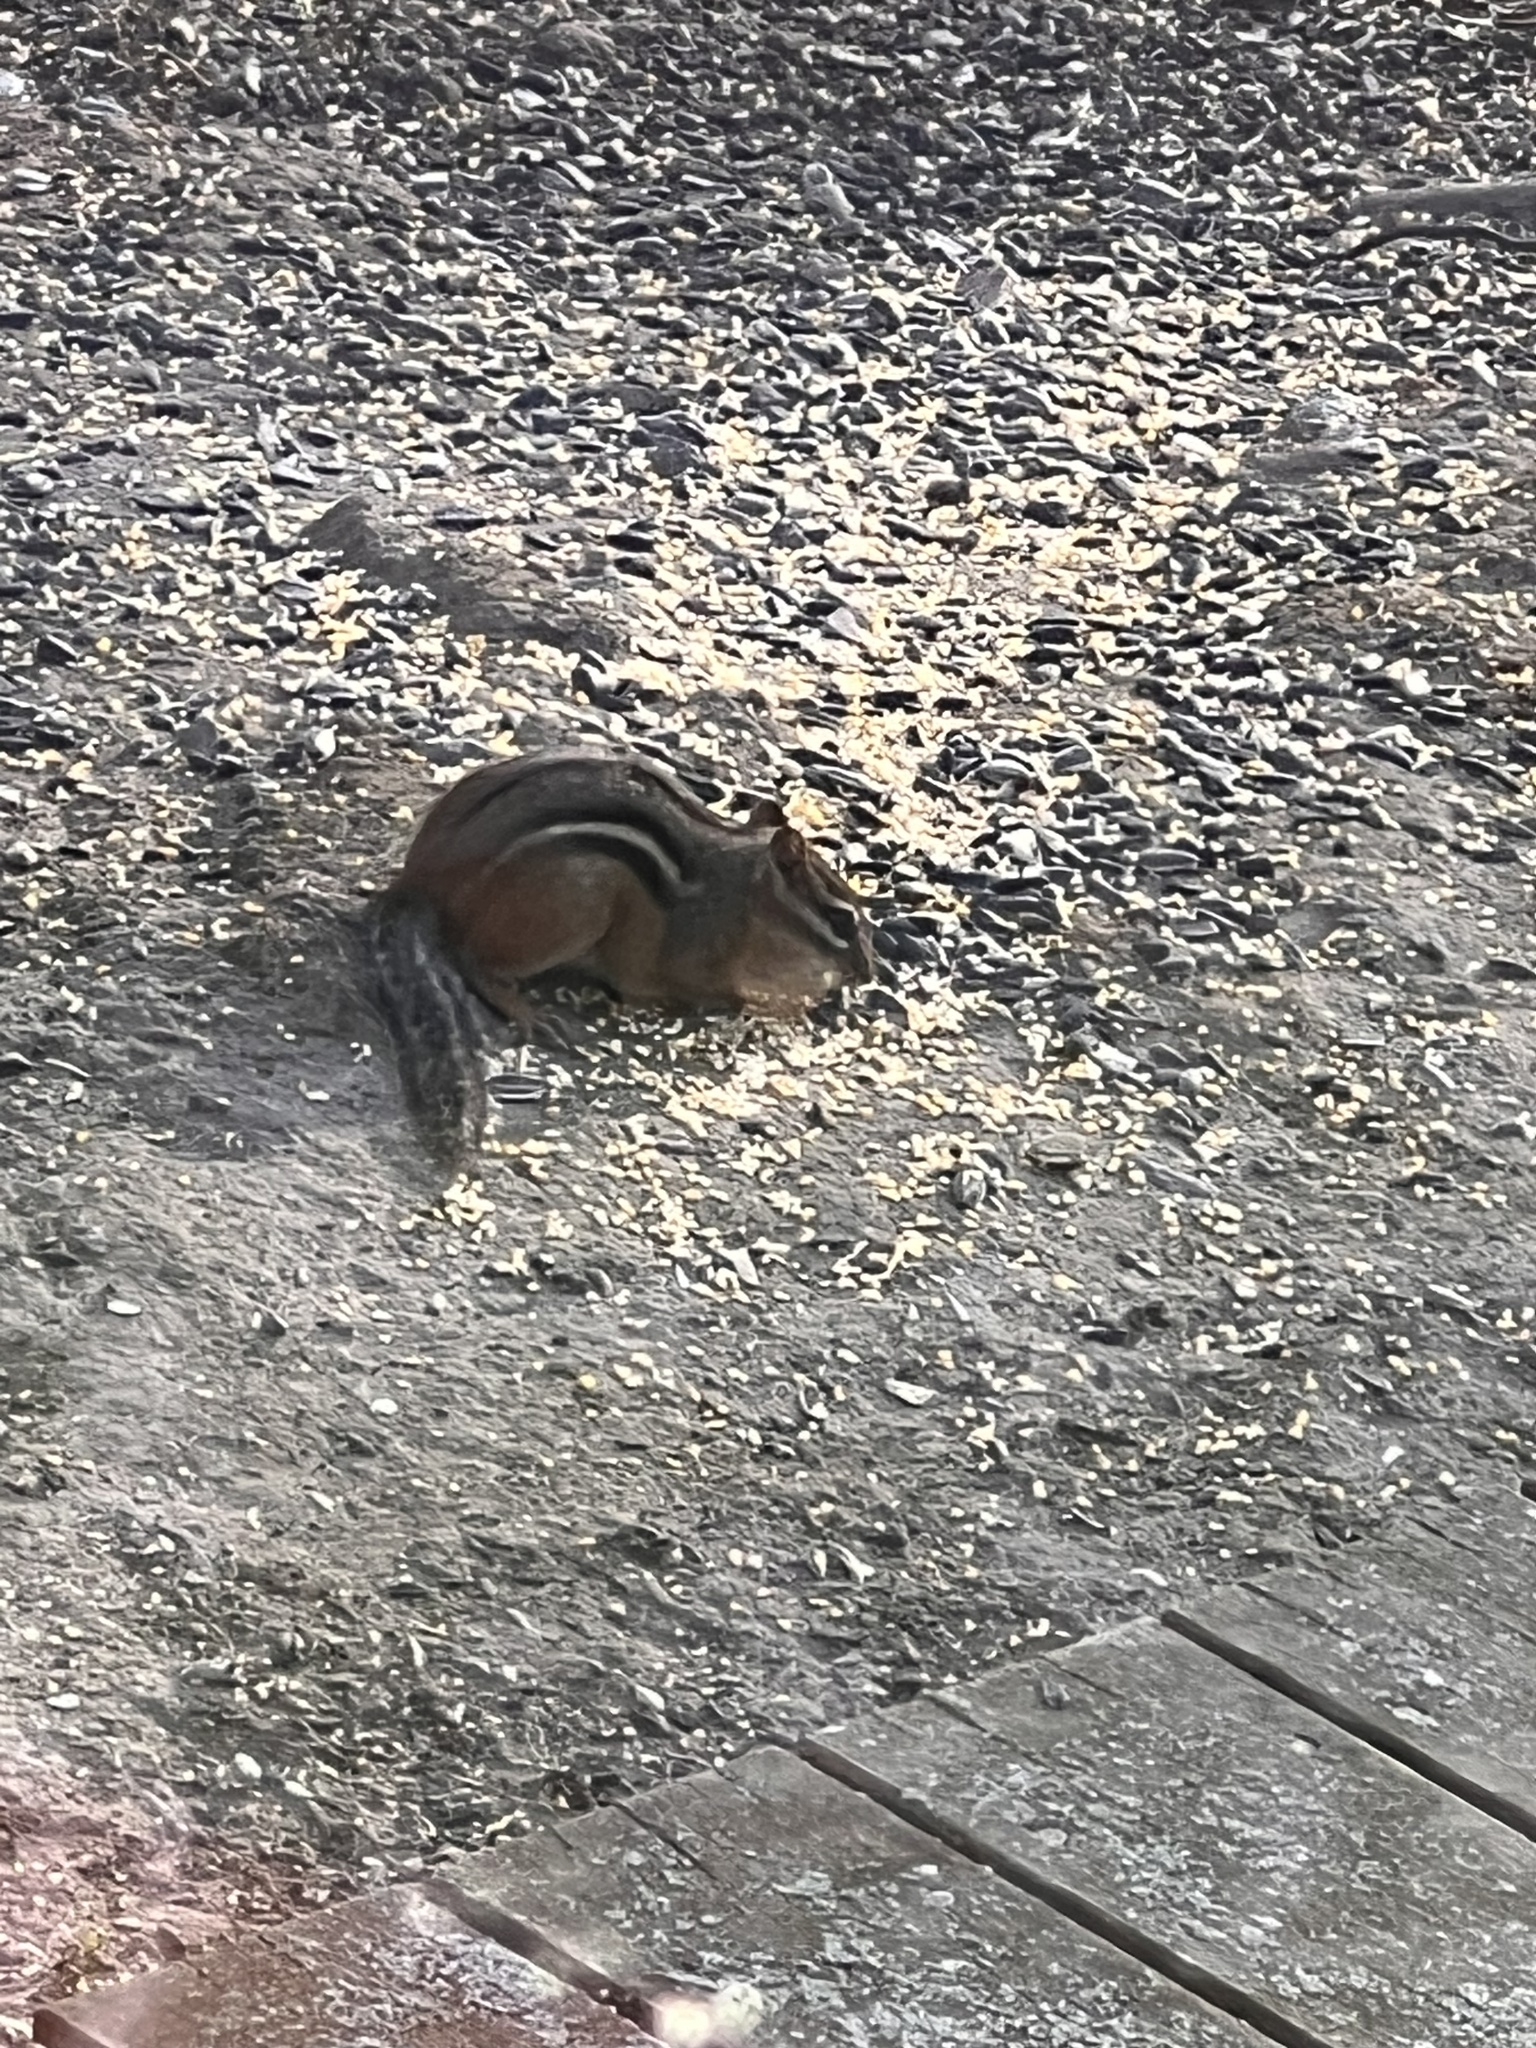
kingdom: Animalia
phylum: Chordata
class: Mammalia
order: Rodentia
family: Sciuridae
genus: Tamias
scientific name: Tamias striatus
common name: Eastern chipmunk
